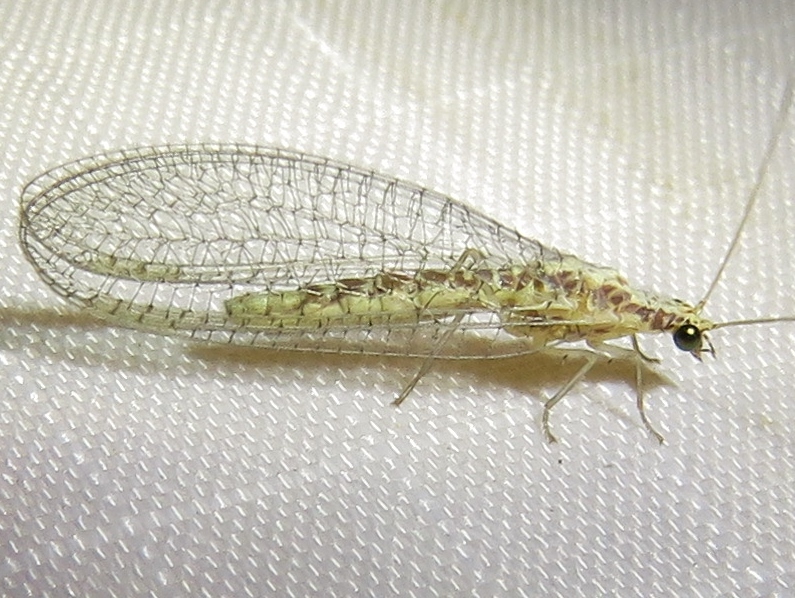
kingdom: Animalia
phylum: Arthropoda
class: Insecta
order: Neuroptera
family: Chrysopidae
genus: Eremochrysa
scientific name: Eremochrysa punctinervis
